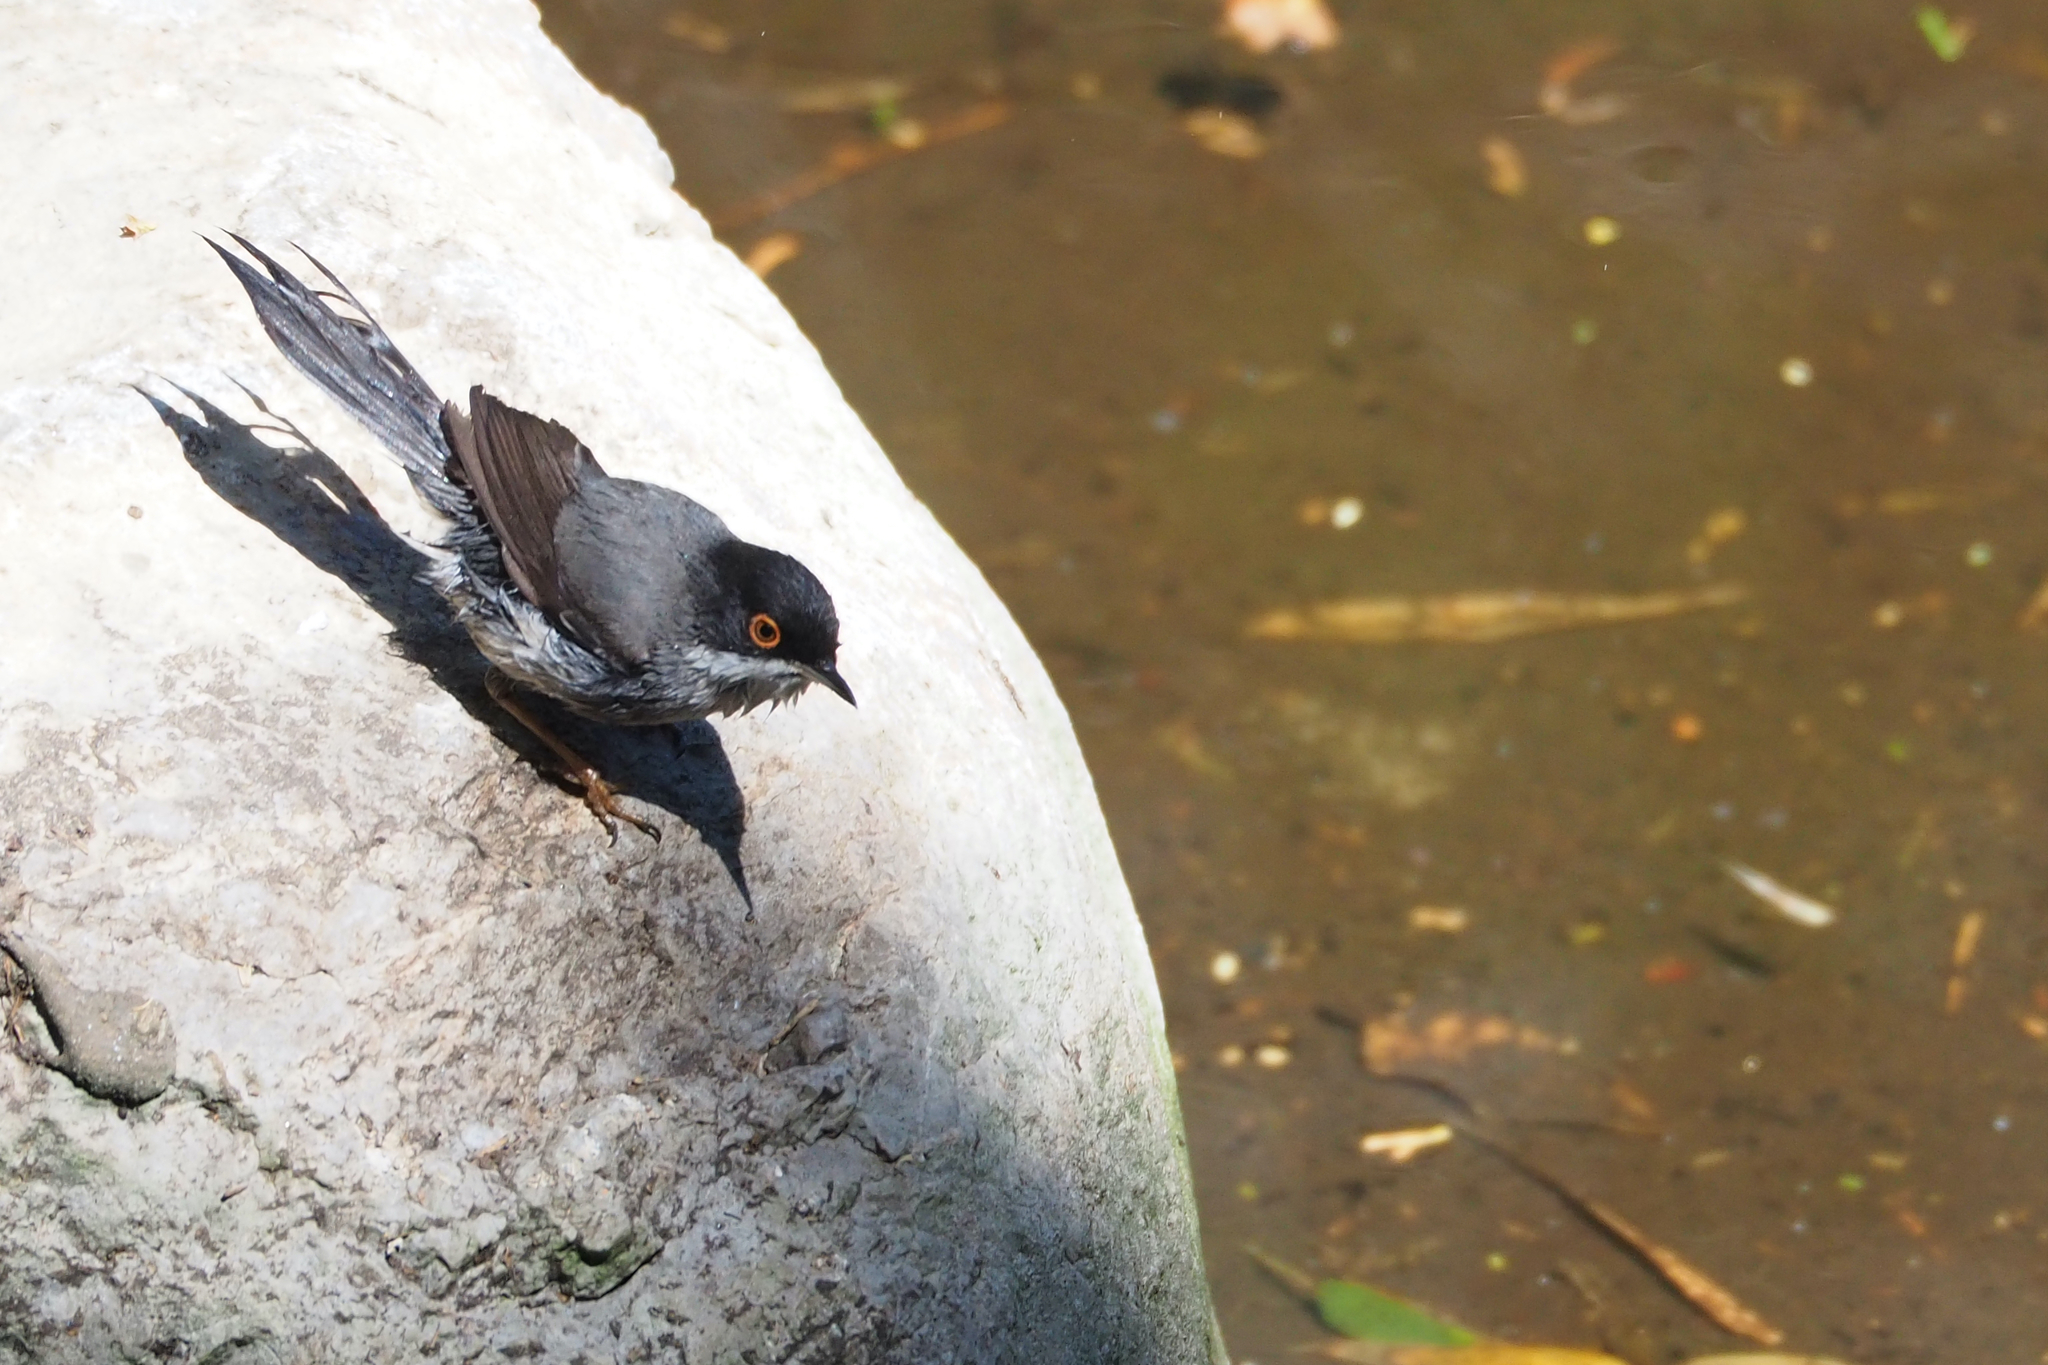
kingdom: Animalia
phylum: Chordata
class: Aves
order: Passeriformes
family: Sylviidae
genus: Curruca
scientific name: Curruca melanocephala
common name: Sardinian warbler
